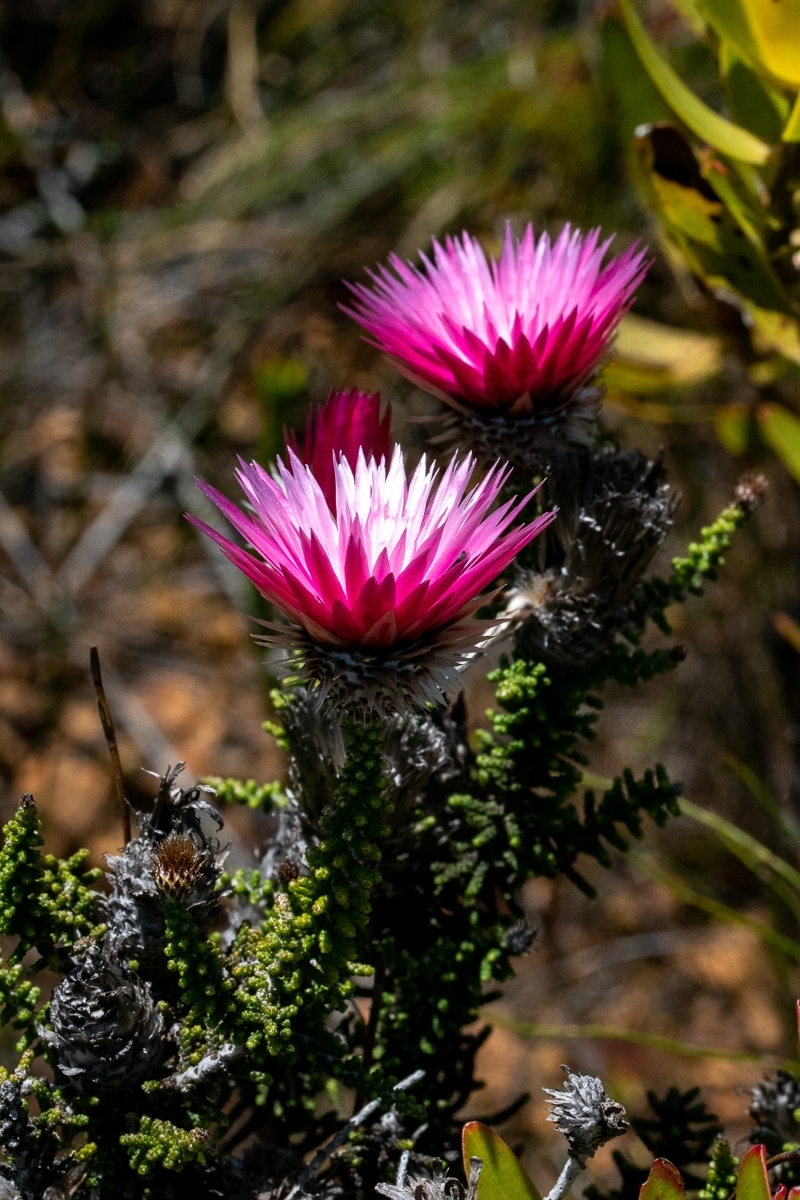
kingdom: Plantae
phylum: Tracheophyta
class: Magnoliopsida
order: Asterales
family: Asteraceae
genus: Phaenocoma
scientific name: Phaenocoma prolifera
